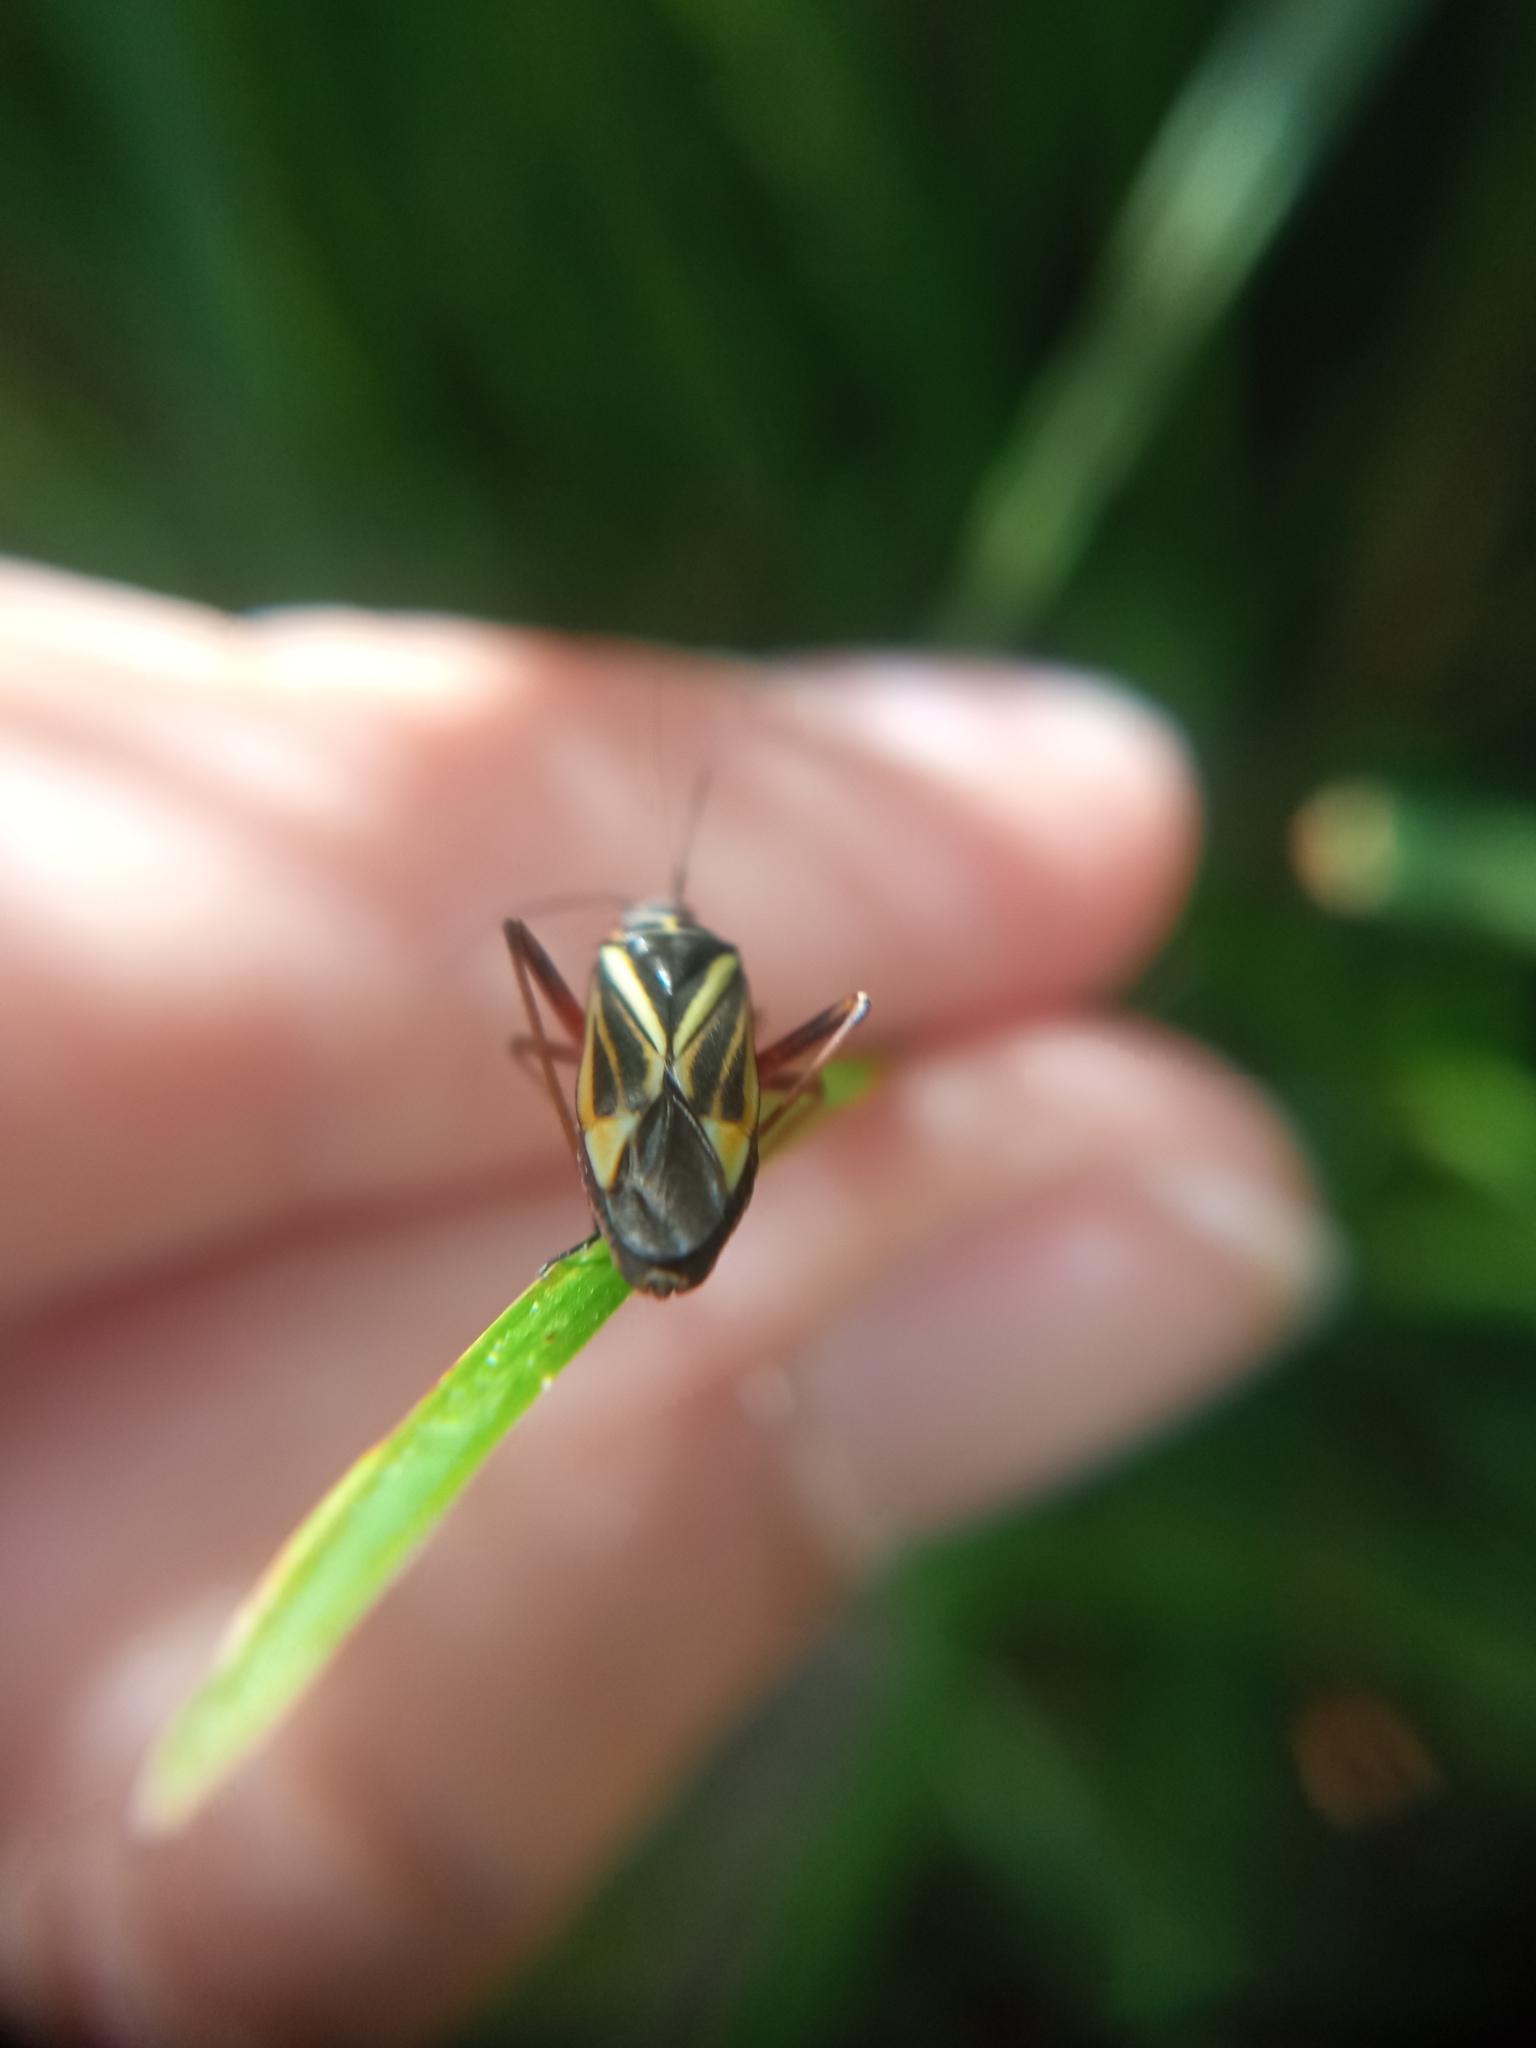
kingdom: Animalia
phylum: Arthropoda
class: Insecta
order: Hemiptera
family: Miridae
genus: Hadrodemus
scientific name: Hadrodemus m-flavum
